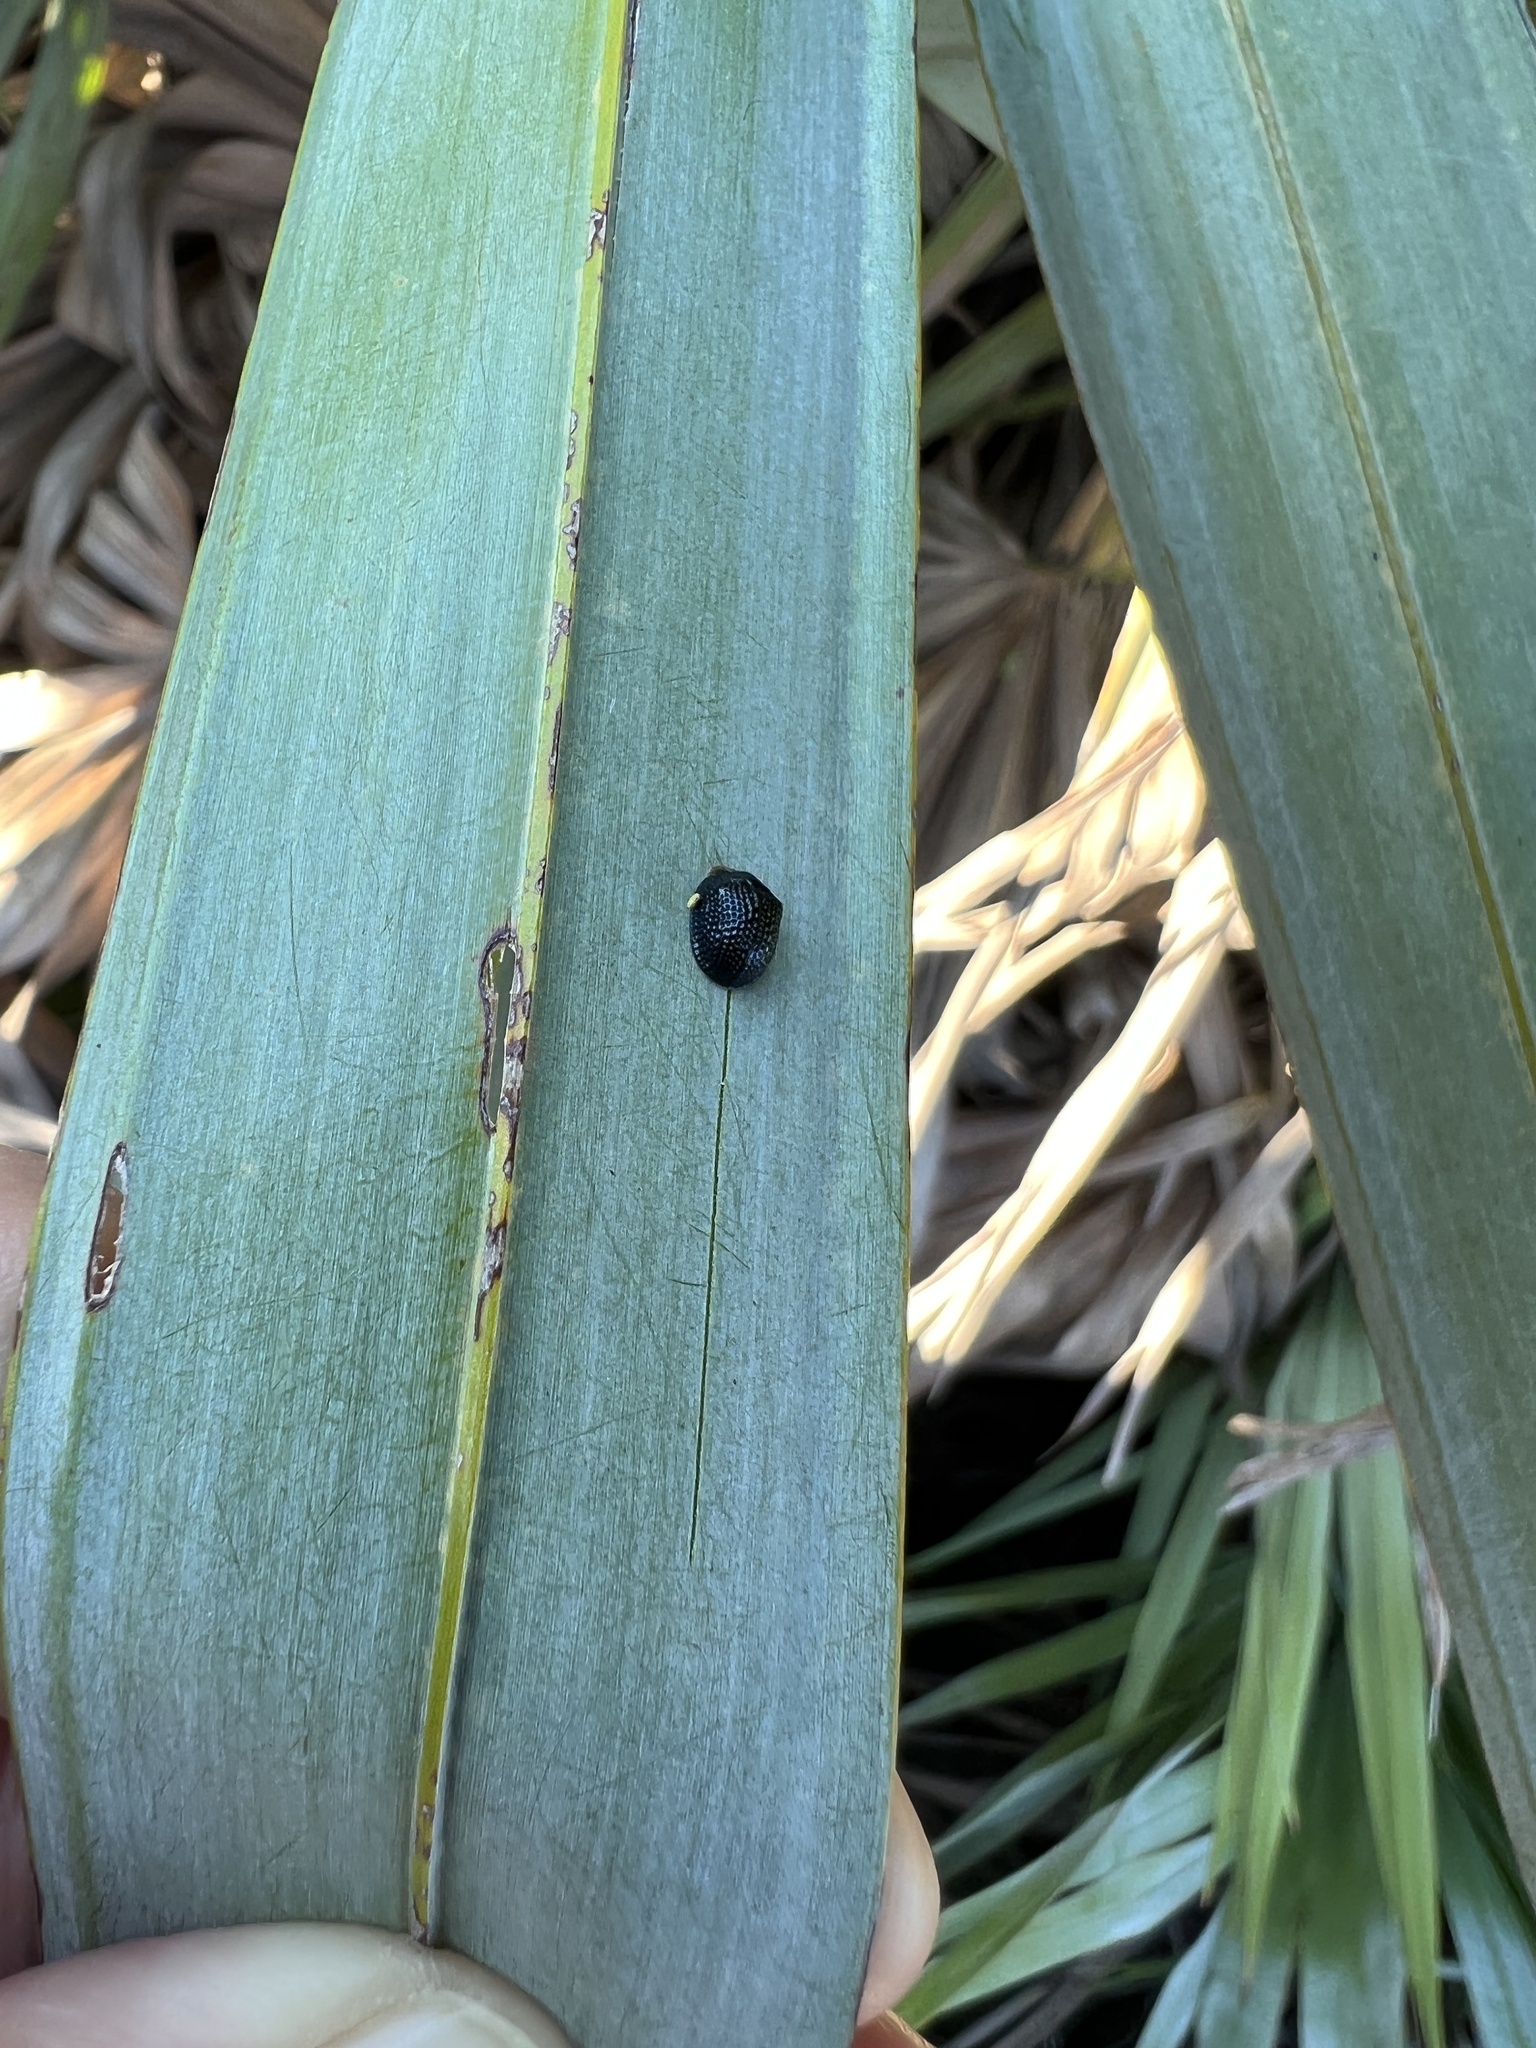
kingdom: Animalia
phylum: Arthropoda
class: Insecta
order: Coleoptera
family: Chrysomelidae
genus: Hemisphaerota
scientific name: Hemisphaerota cyanea
